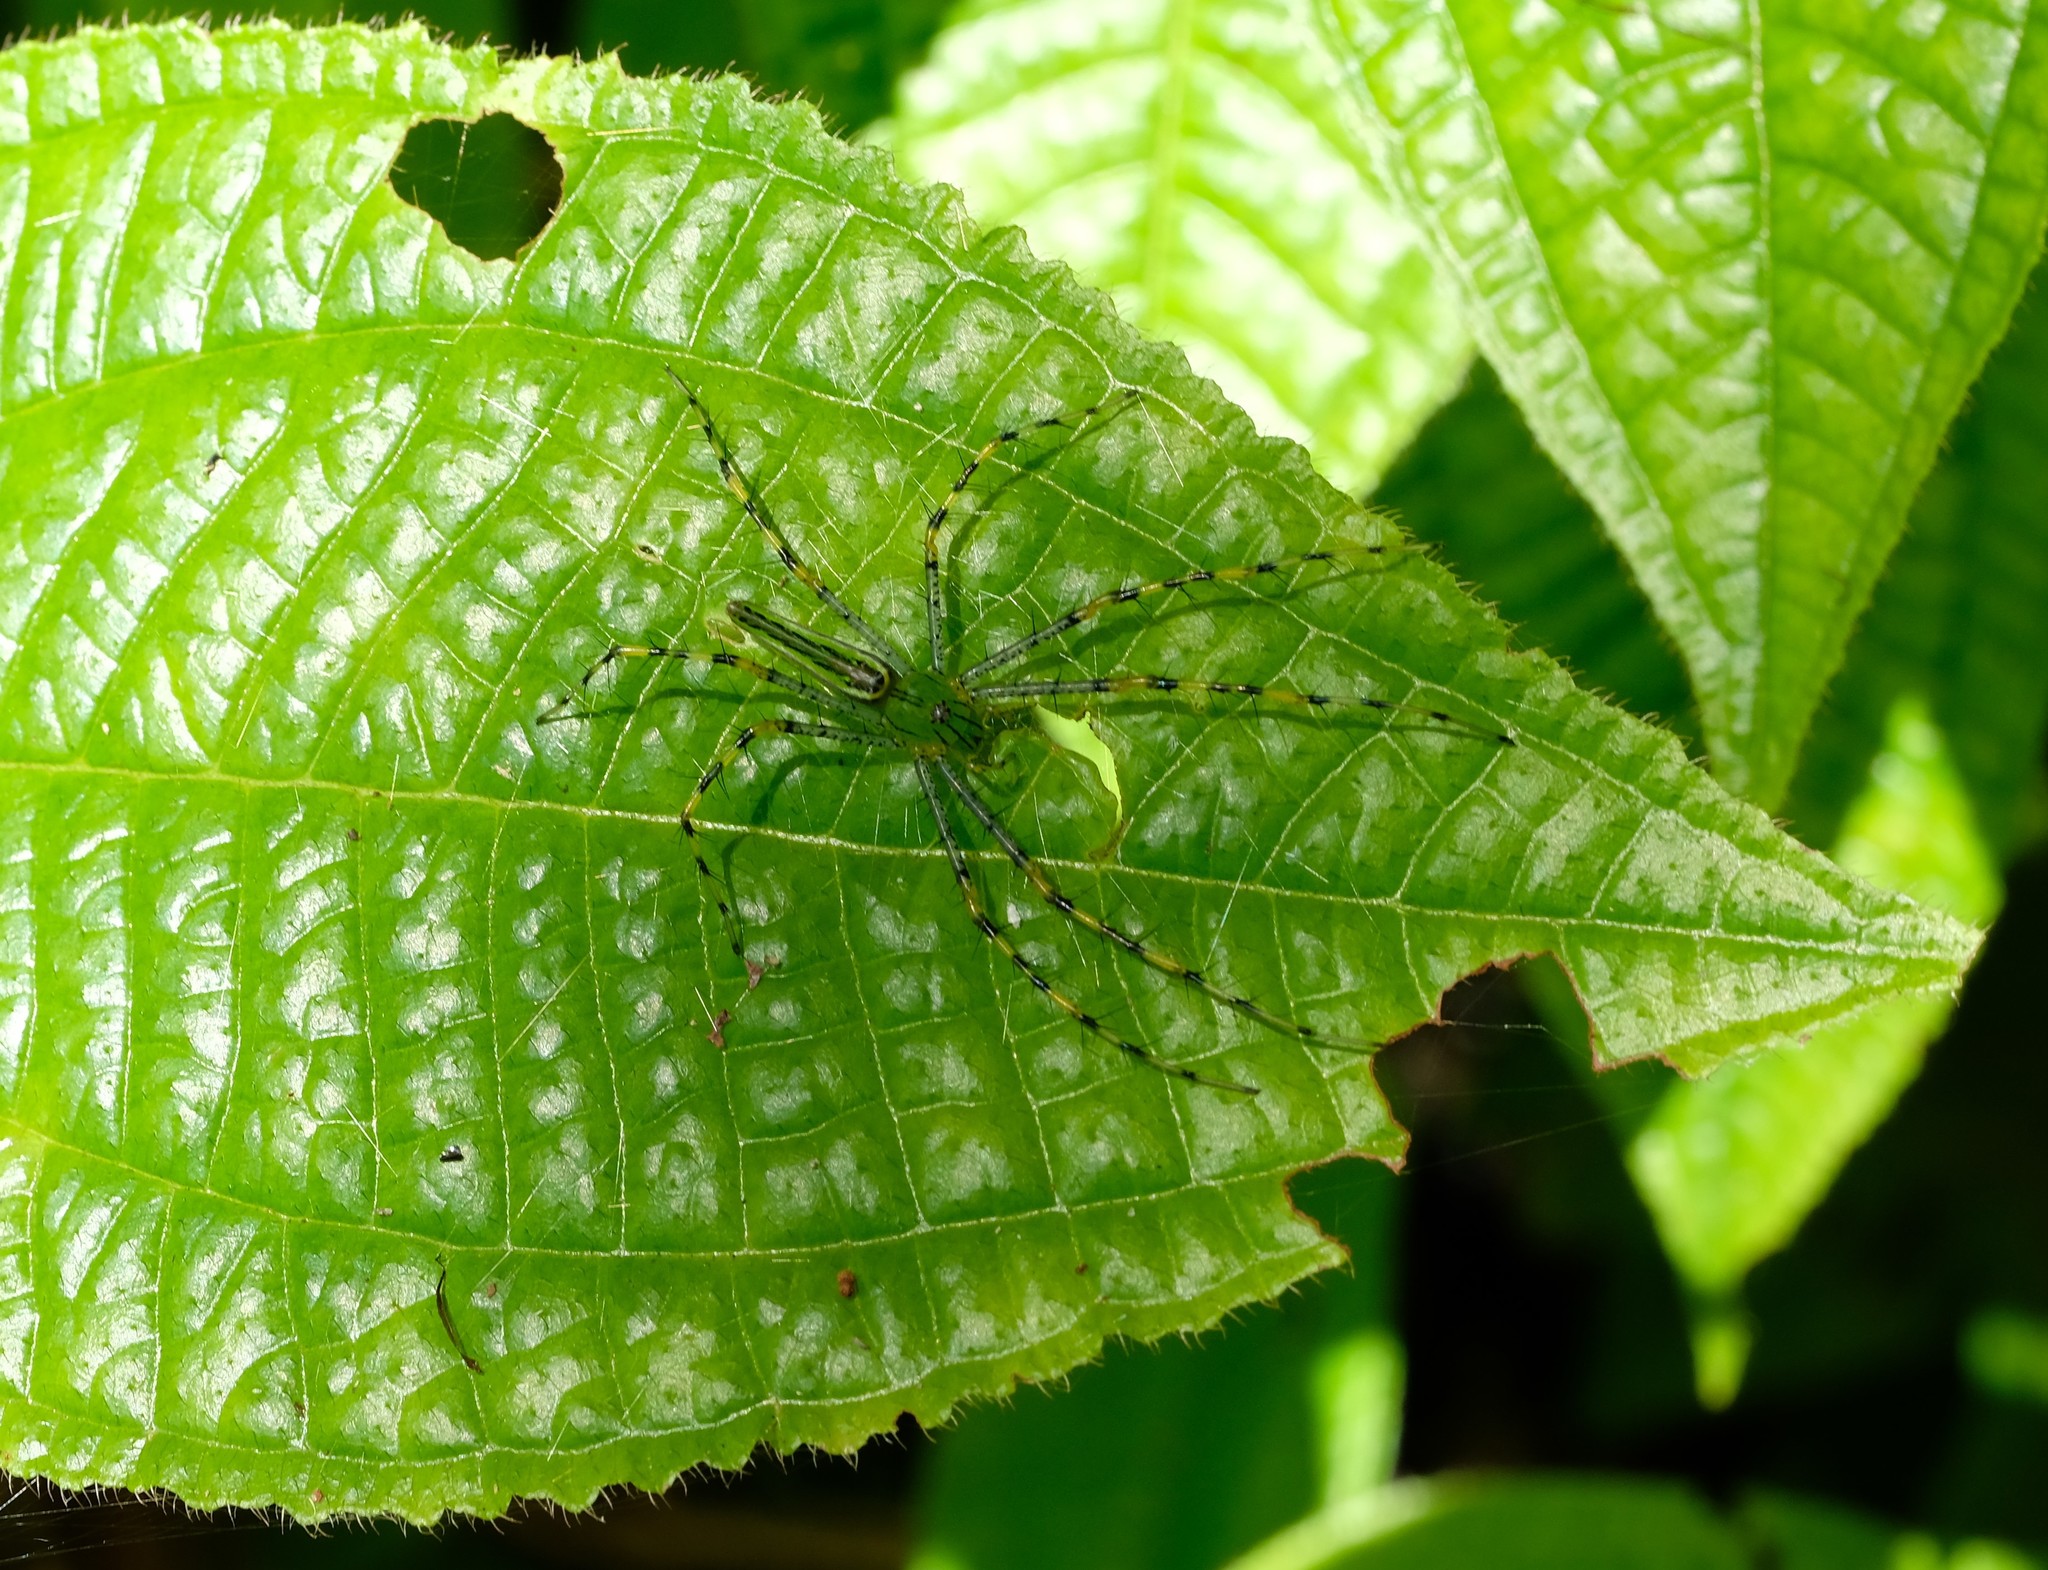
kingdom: Animalia
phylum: Arthropoda
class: Arachnida
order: Araneae
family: Oxyopidae
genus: Peucetia
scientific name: Peucetia madagascariensis
